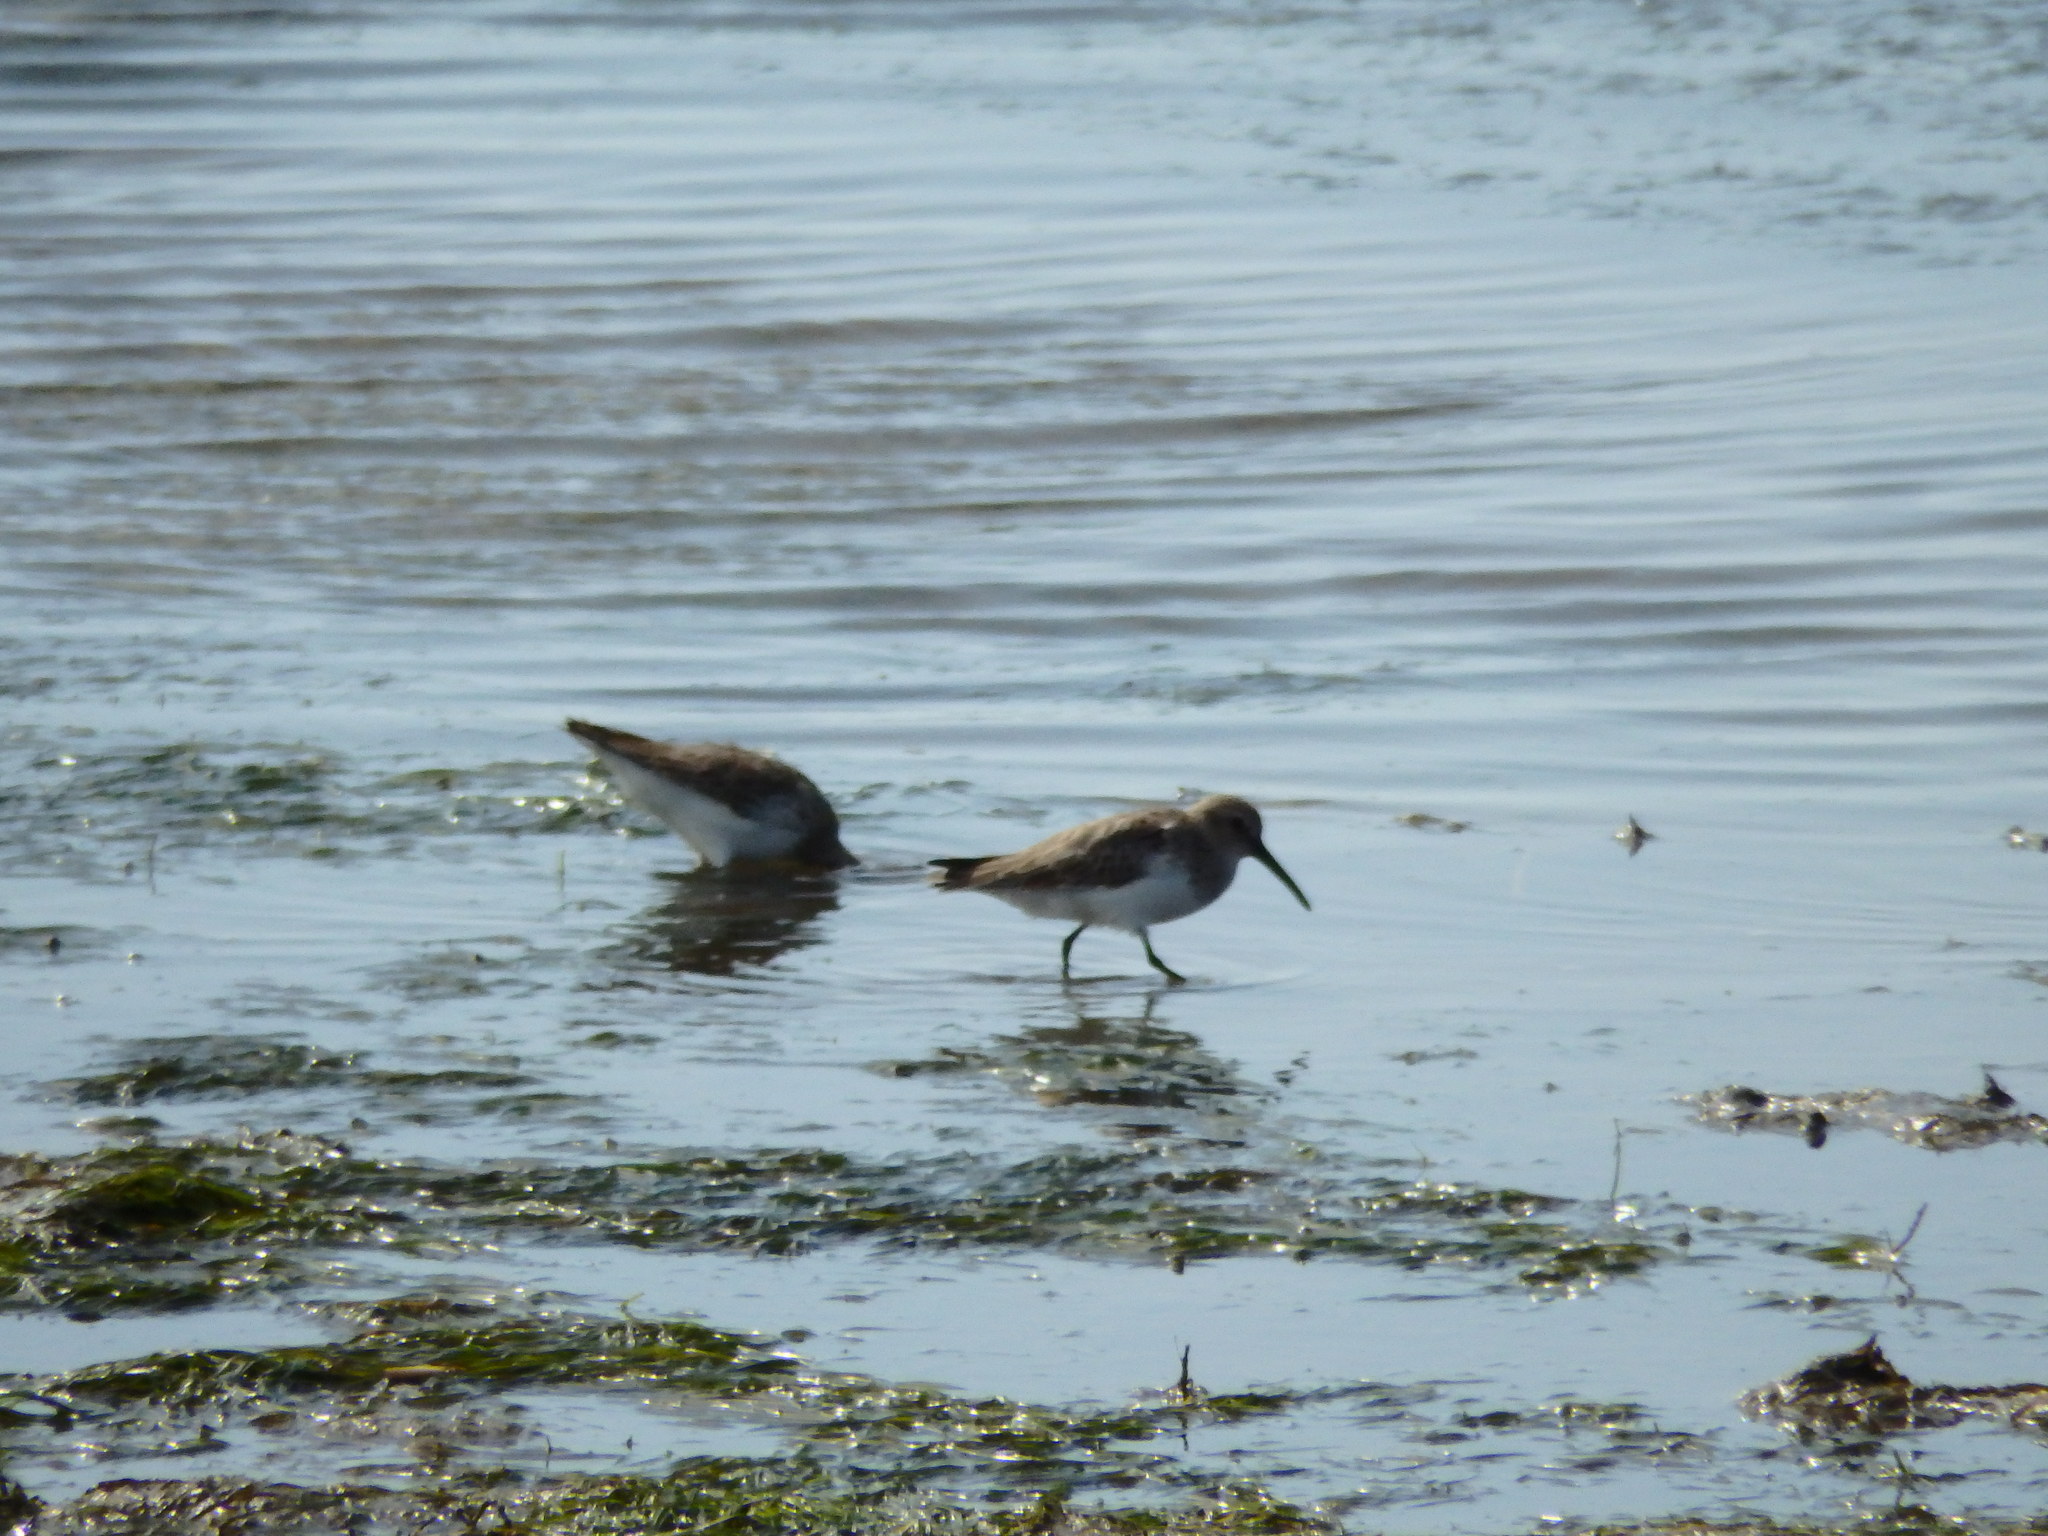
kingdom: Animalia
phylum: Chordata
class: Aves
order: Charadriiformes
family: Scolopacidae
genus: Calidris
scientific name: Calidris alpina
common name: Dunlin
